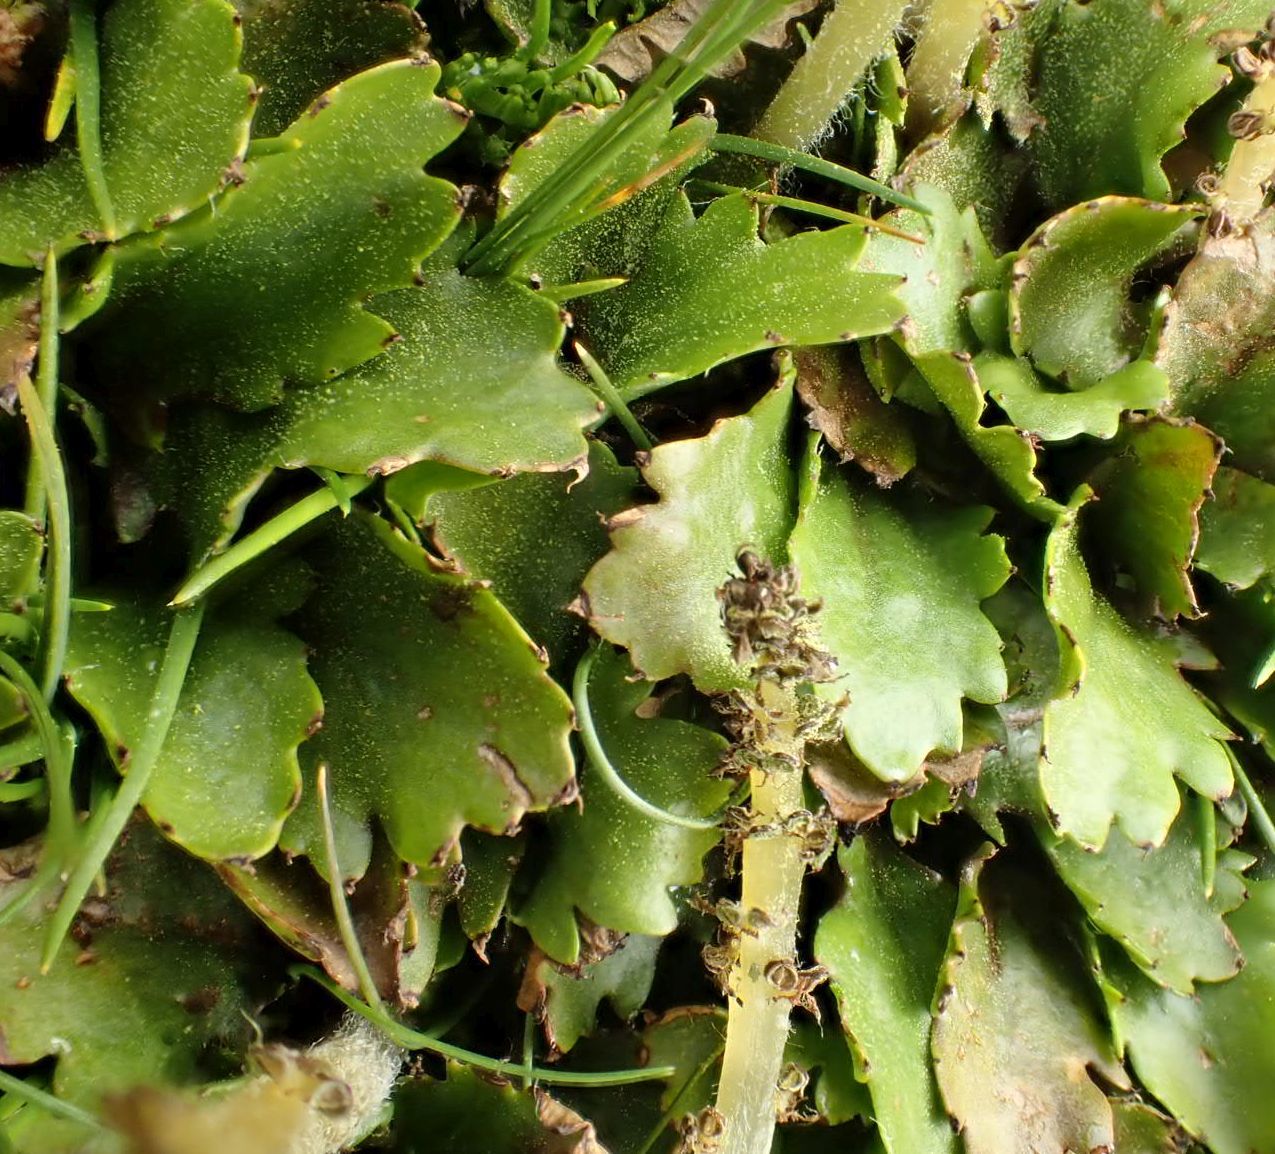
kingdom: Plantae
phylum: Tracheophyta
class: Magnoliopsida
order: Gunnerales
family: Gunneraceae
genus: Gunnera
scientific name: Gunnera dentata
